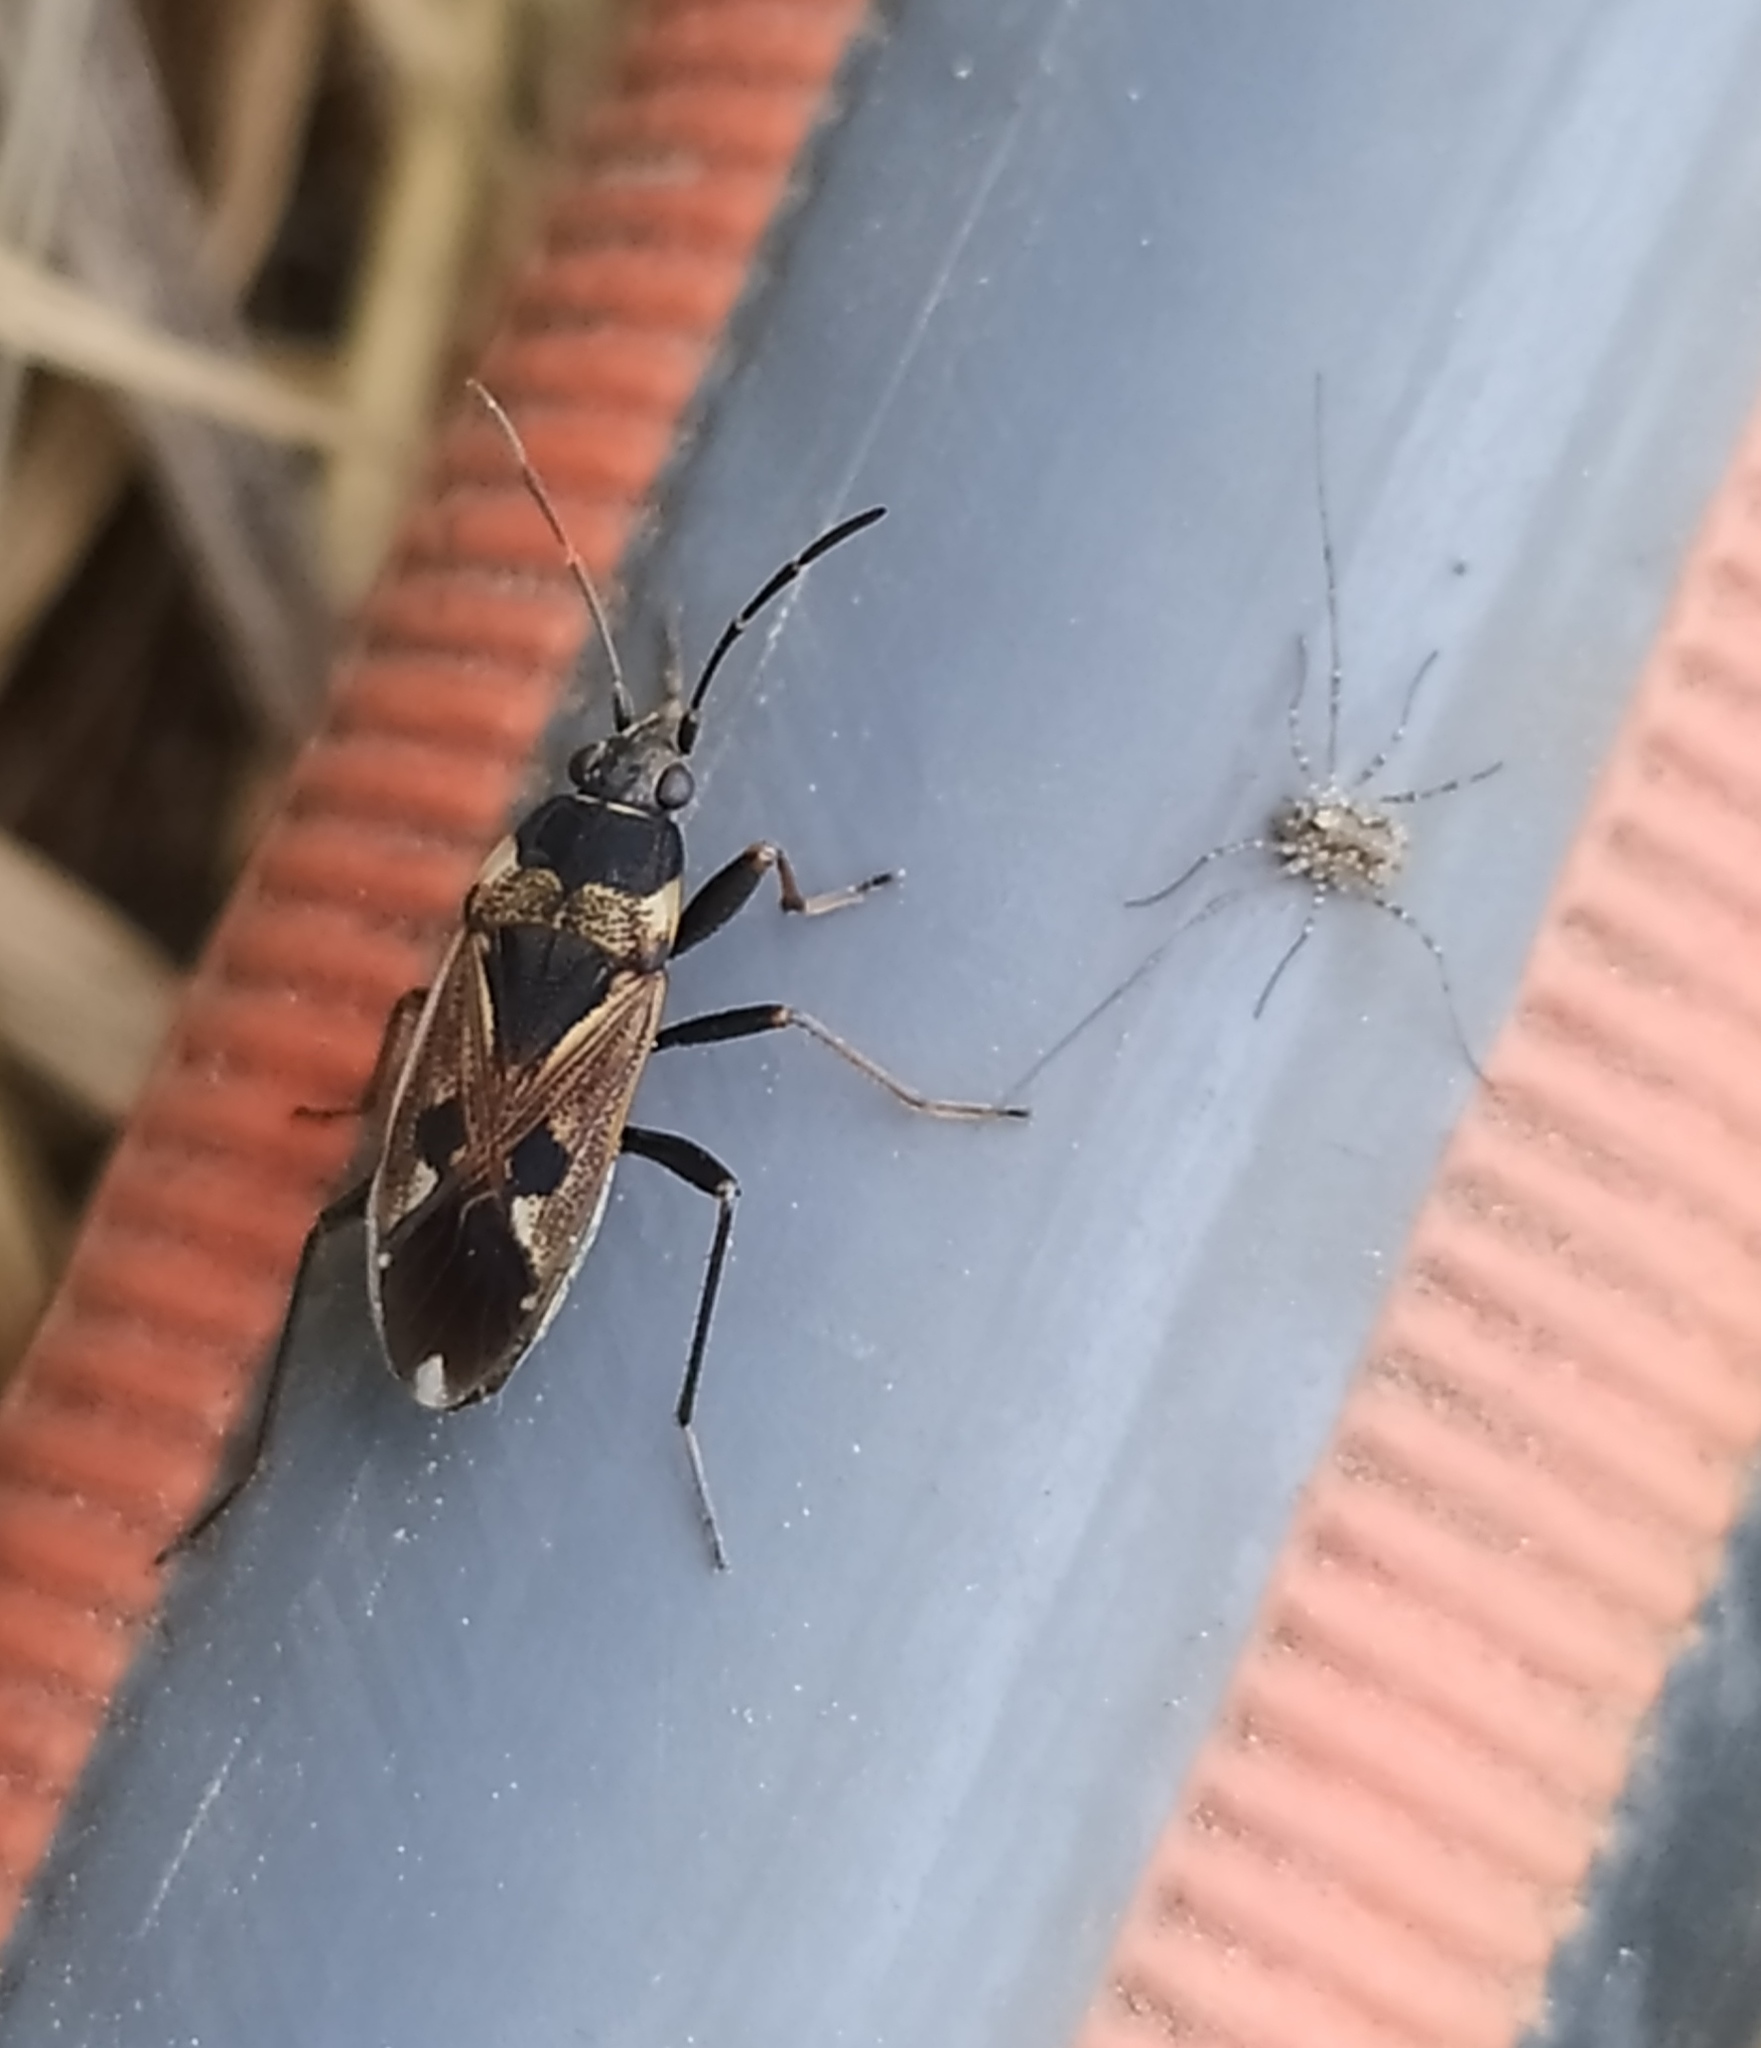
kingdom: Animalia
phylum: Arthropoda
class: Insecta
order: Hemiptera
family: Rhyparochromidae
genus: Rhyparochromus
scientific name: Rhyparochromus vulgaris
